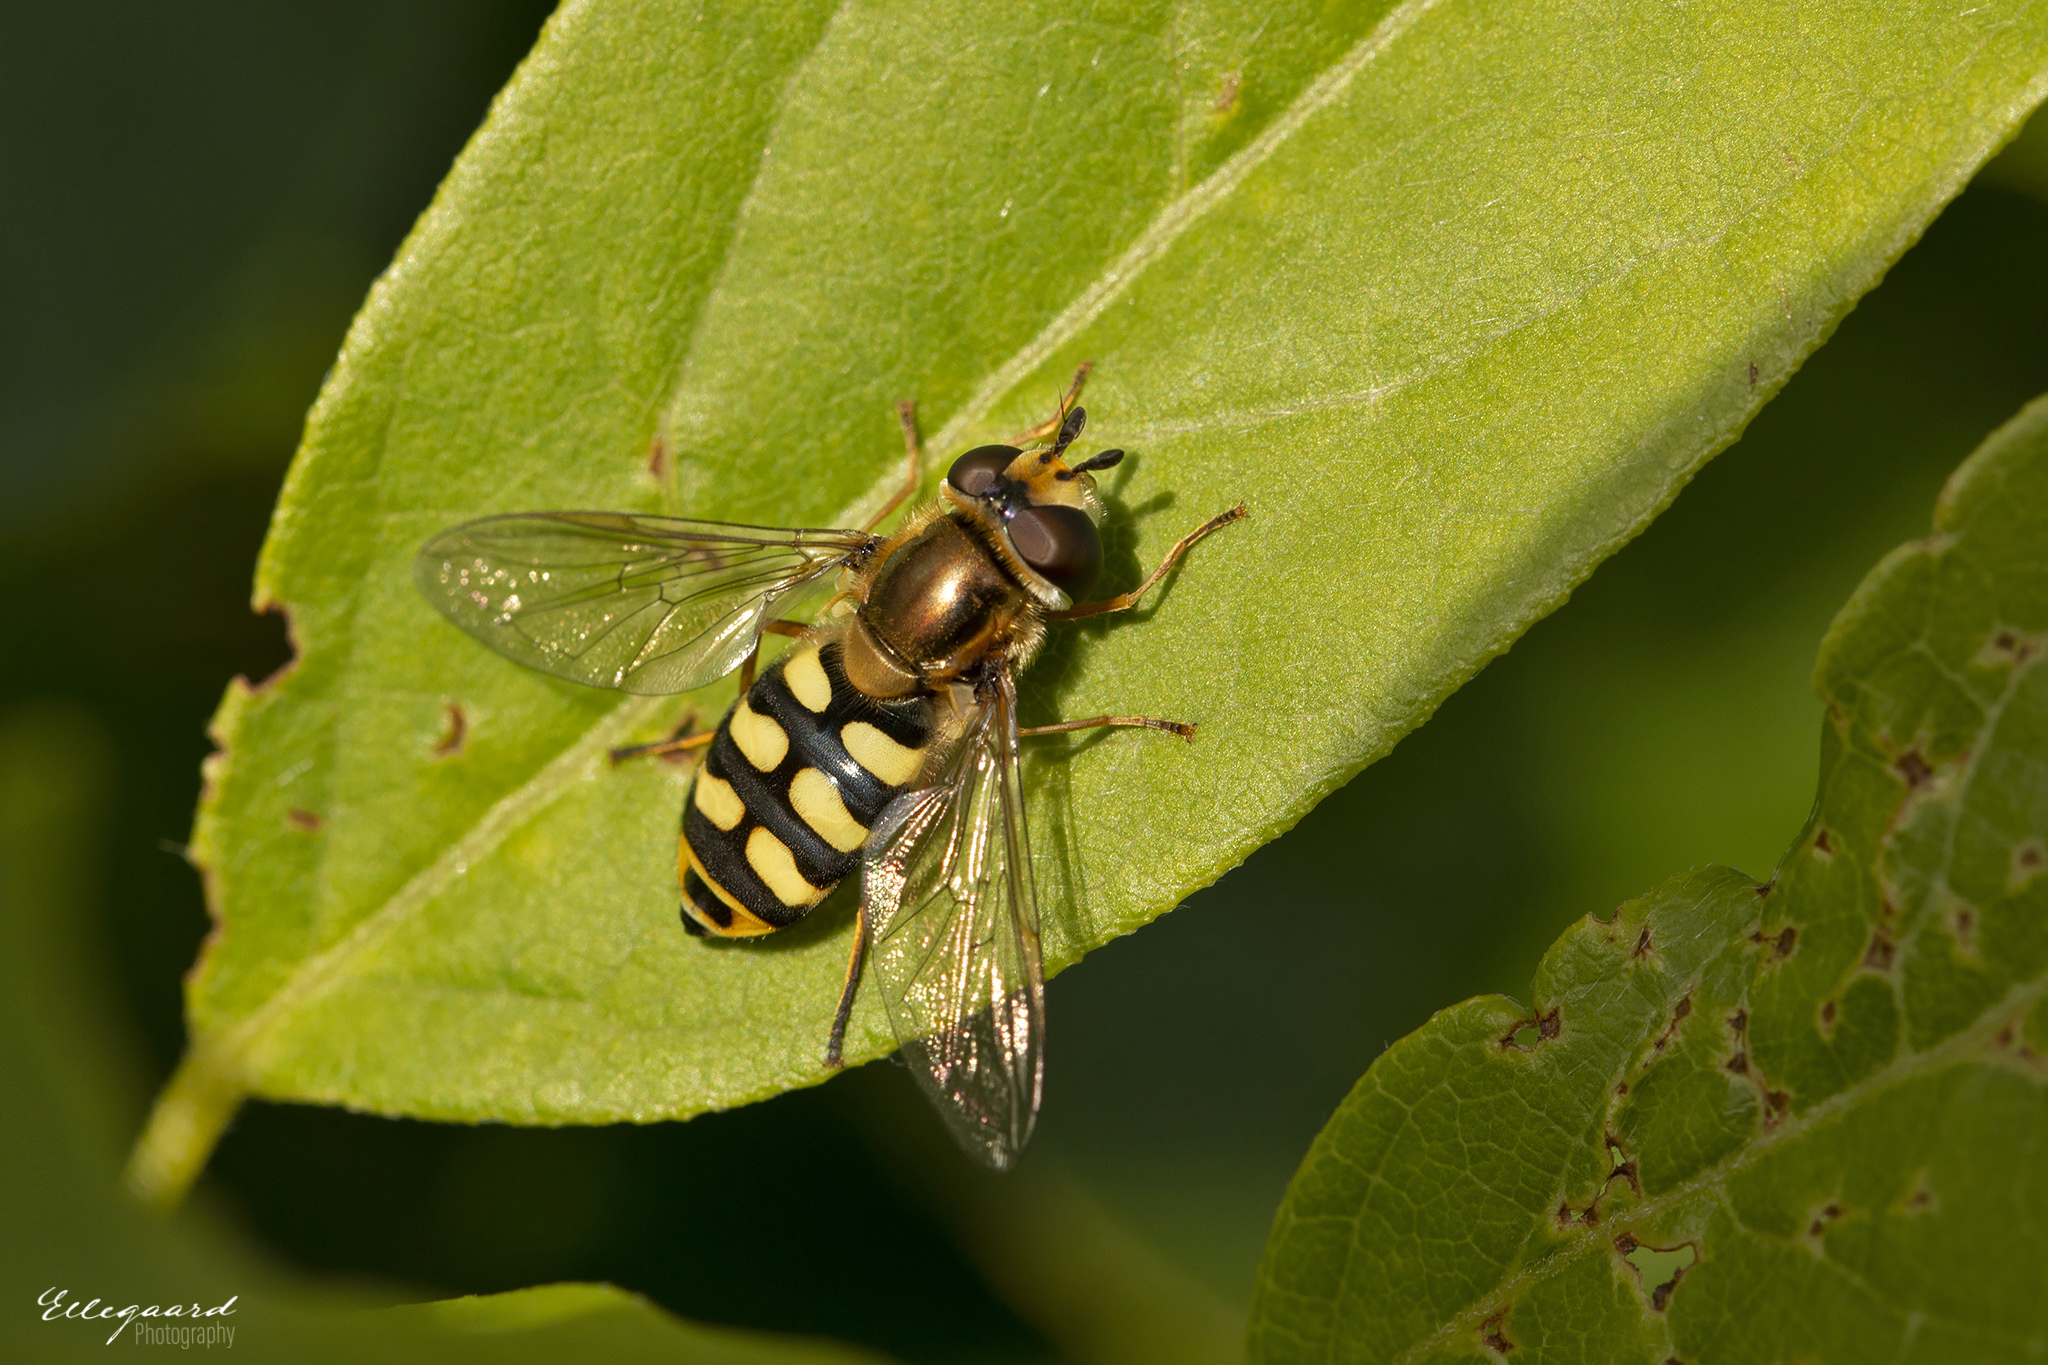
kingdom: Animalia
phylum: Arthropoda
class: Insecta
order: Diptera
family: Syrphidae
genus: Eupeodes
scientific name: Eupeodes corollae
